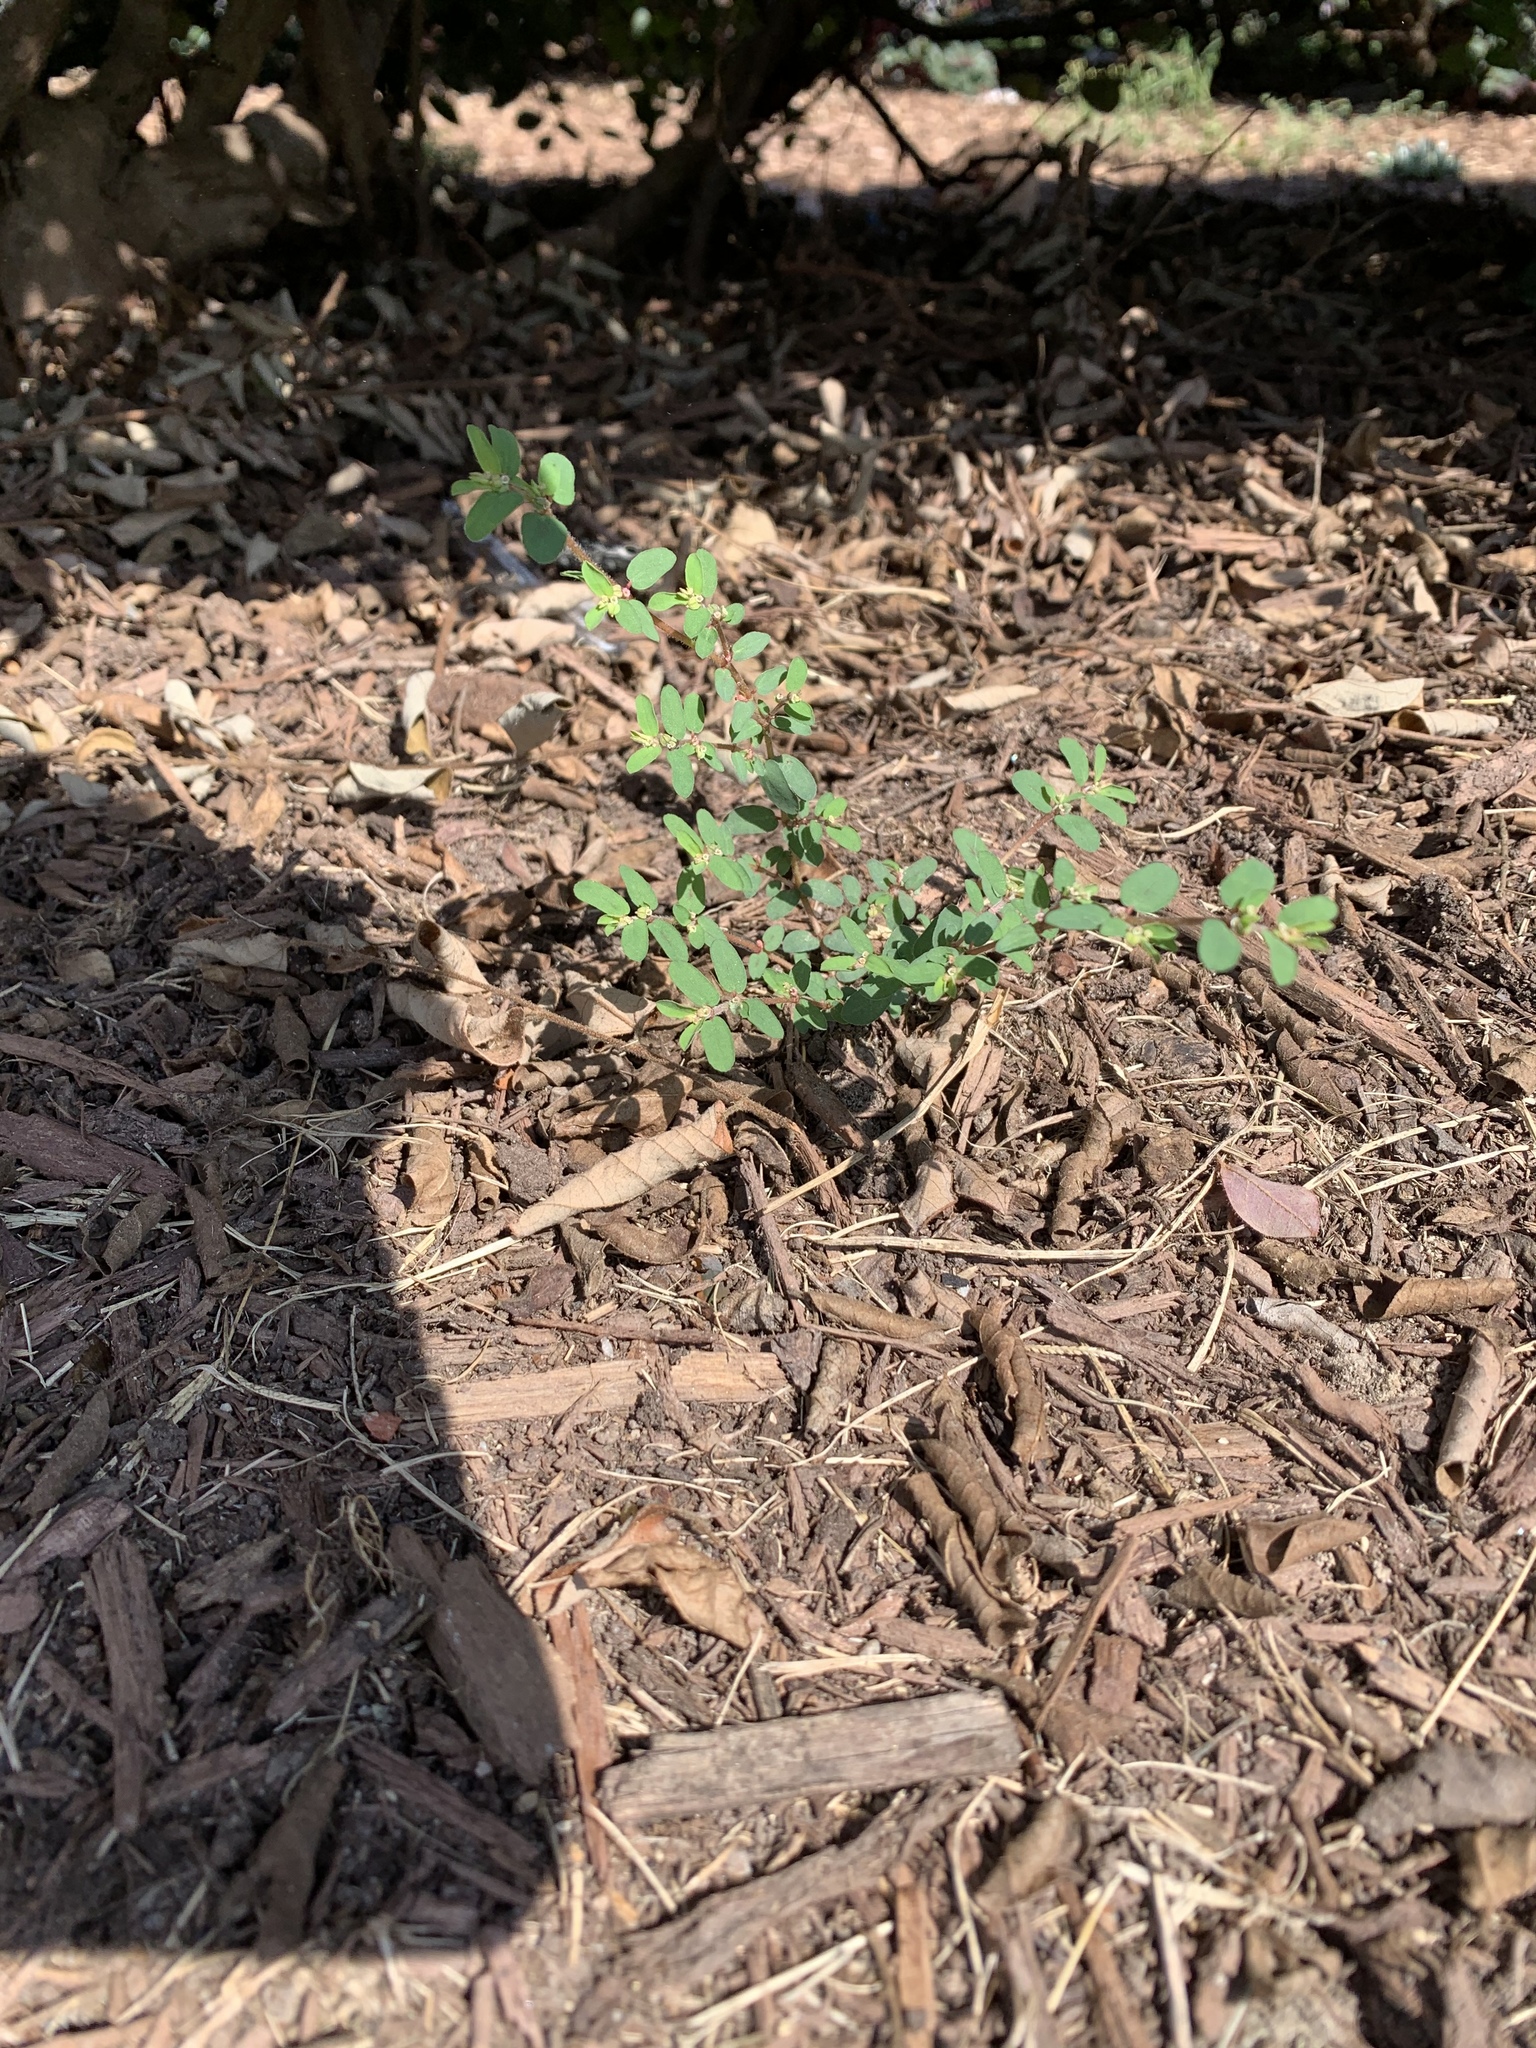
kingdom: Plantae
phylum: Tracheophyta
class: Magnoliopsida
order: Malpighiales
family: Euphorbiaceae
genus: Euphorbia
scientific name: Euphorbia maculata
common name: Spotted spurge
